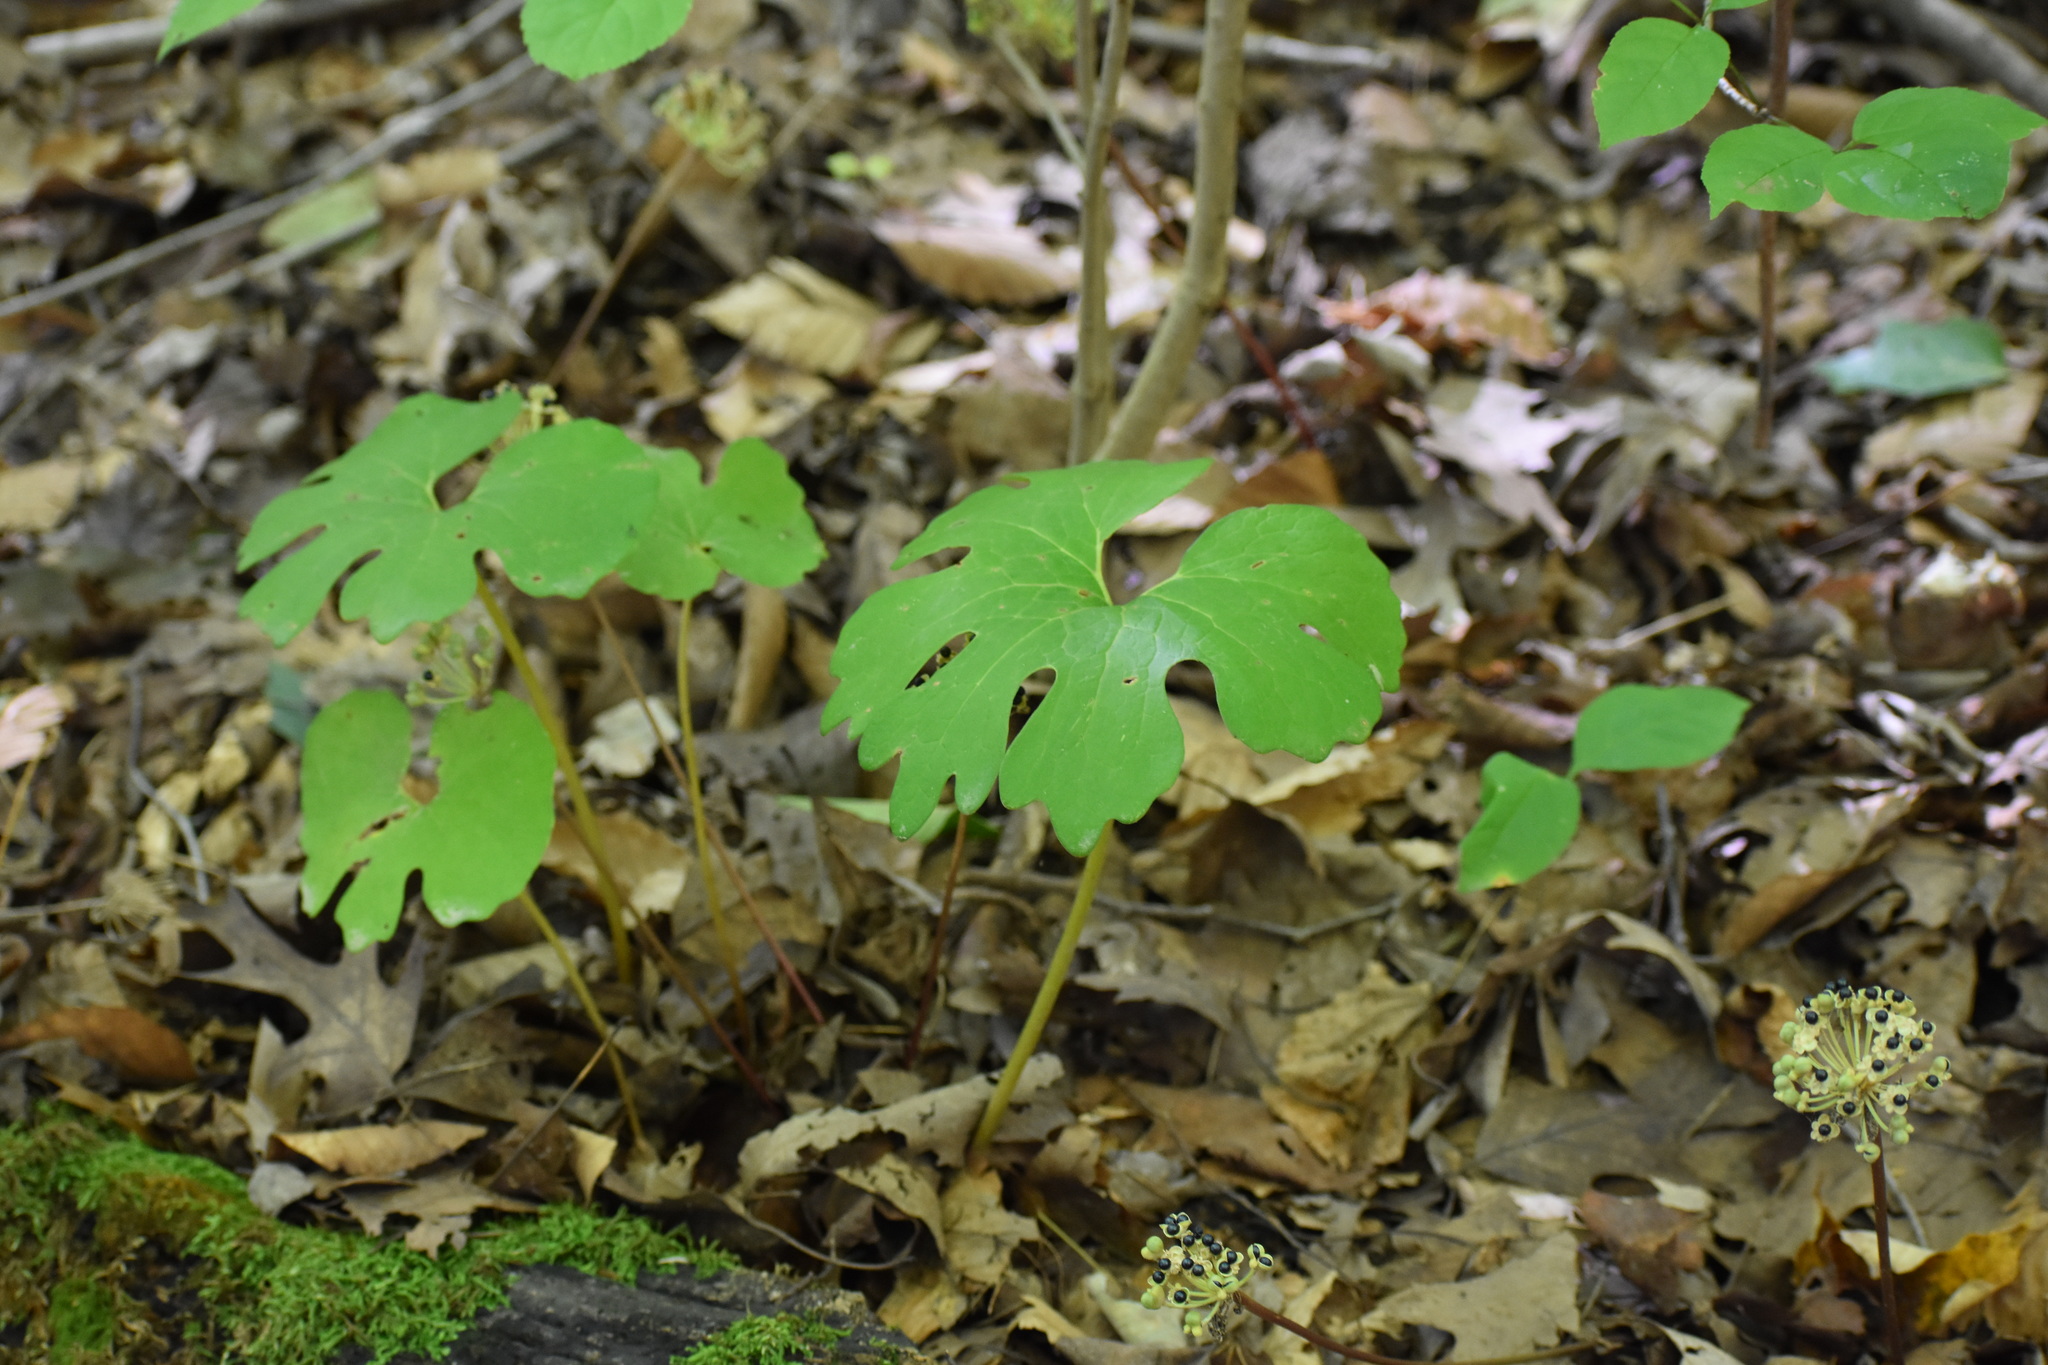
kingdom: Plantae
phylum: Tracheophyta
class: Magnoliopsida
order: Ranunculales
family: Papaveraceae
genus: Sanguinaria
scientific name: Sanguinaria canadensis
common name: Bloodroot
